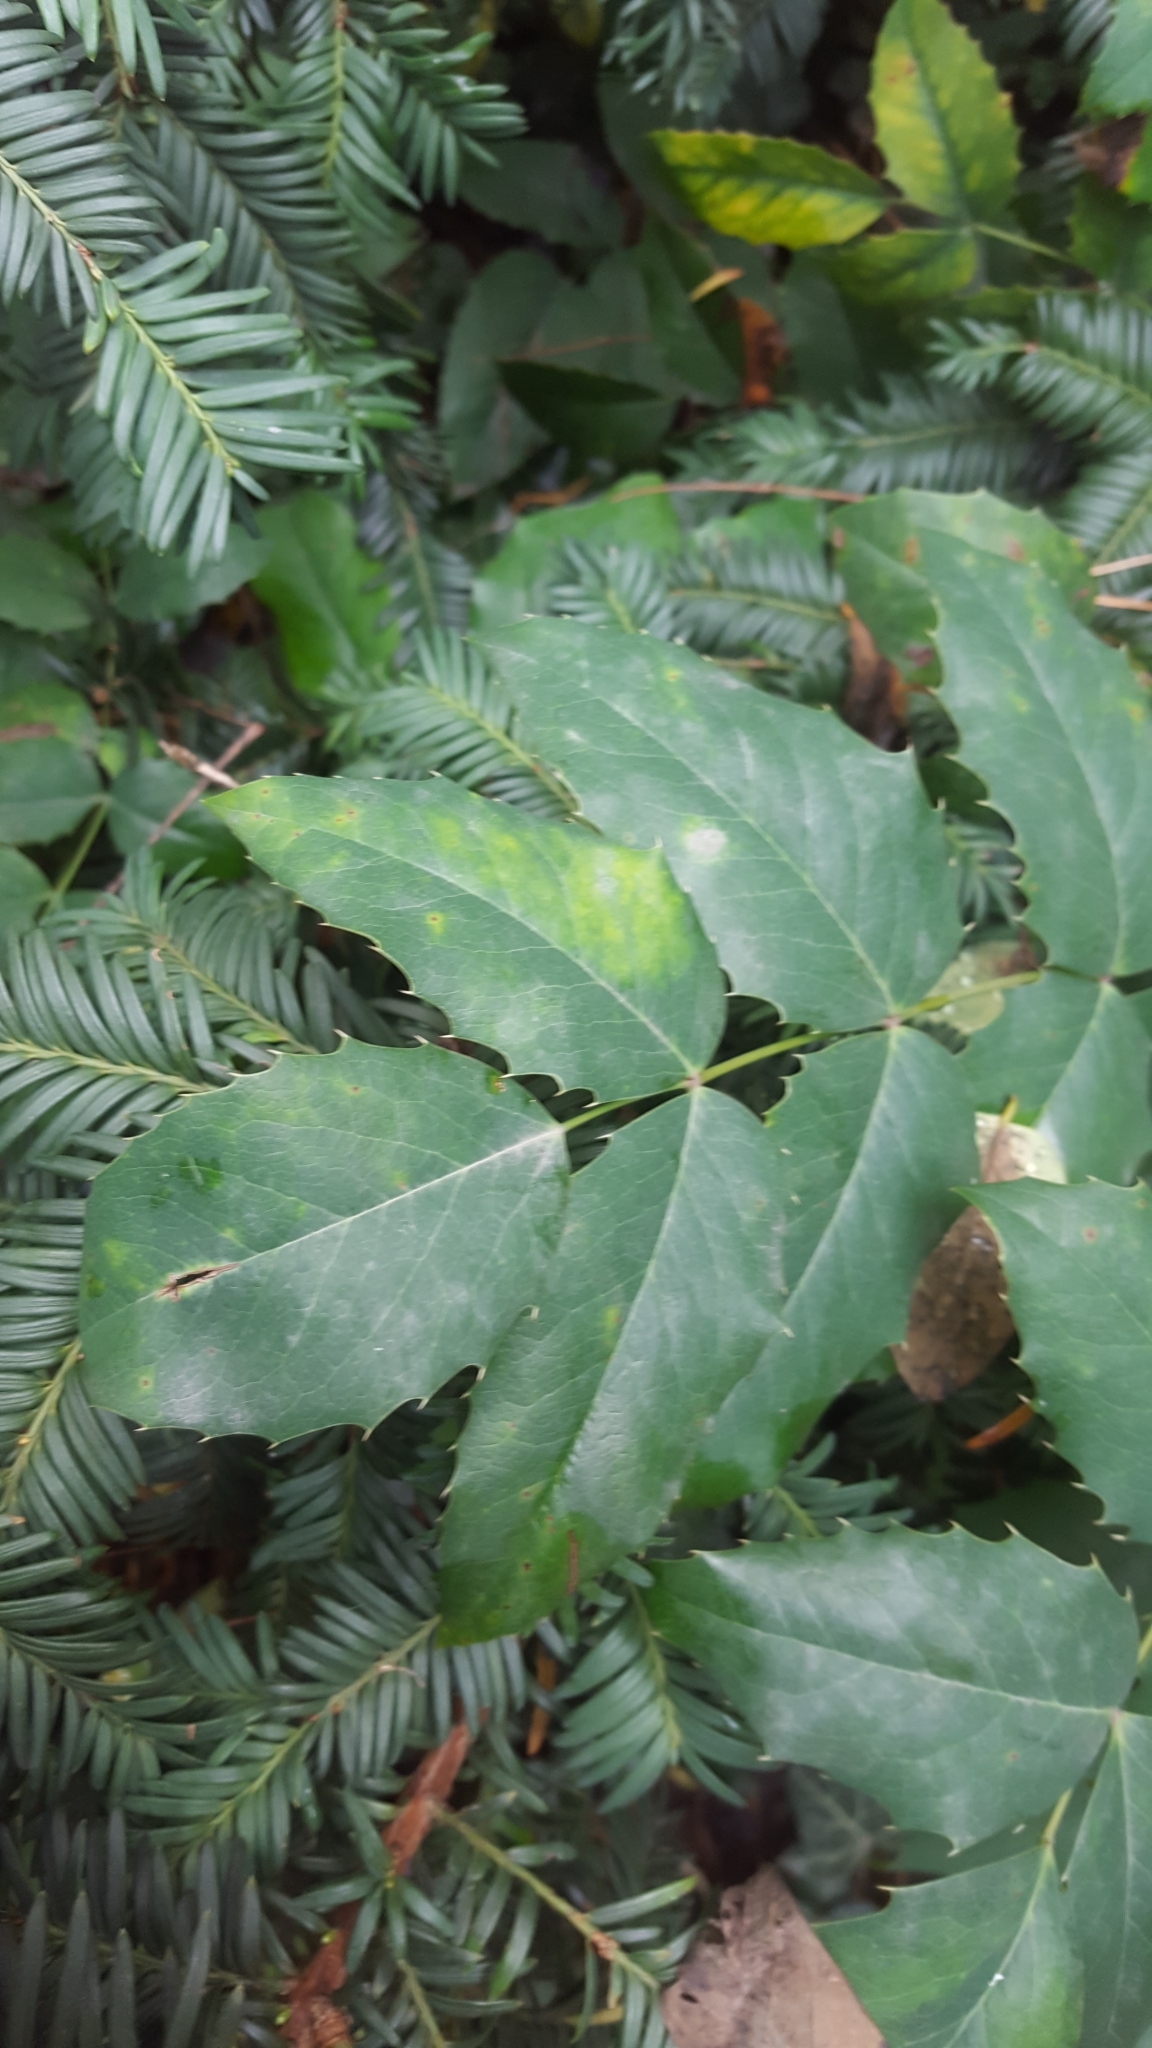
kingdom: Plantae
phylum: Tracheophyta
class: Magnoliopsida
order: Ranunculales
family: Berberidaceae
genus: Mahonia
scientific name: Mahonia aquifolium
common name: Oregon-grape
